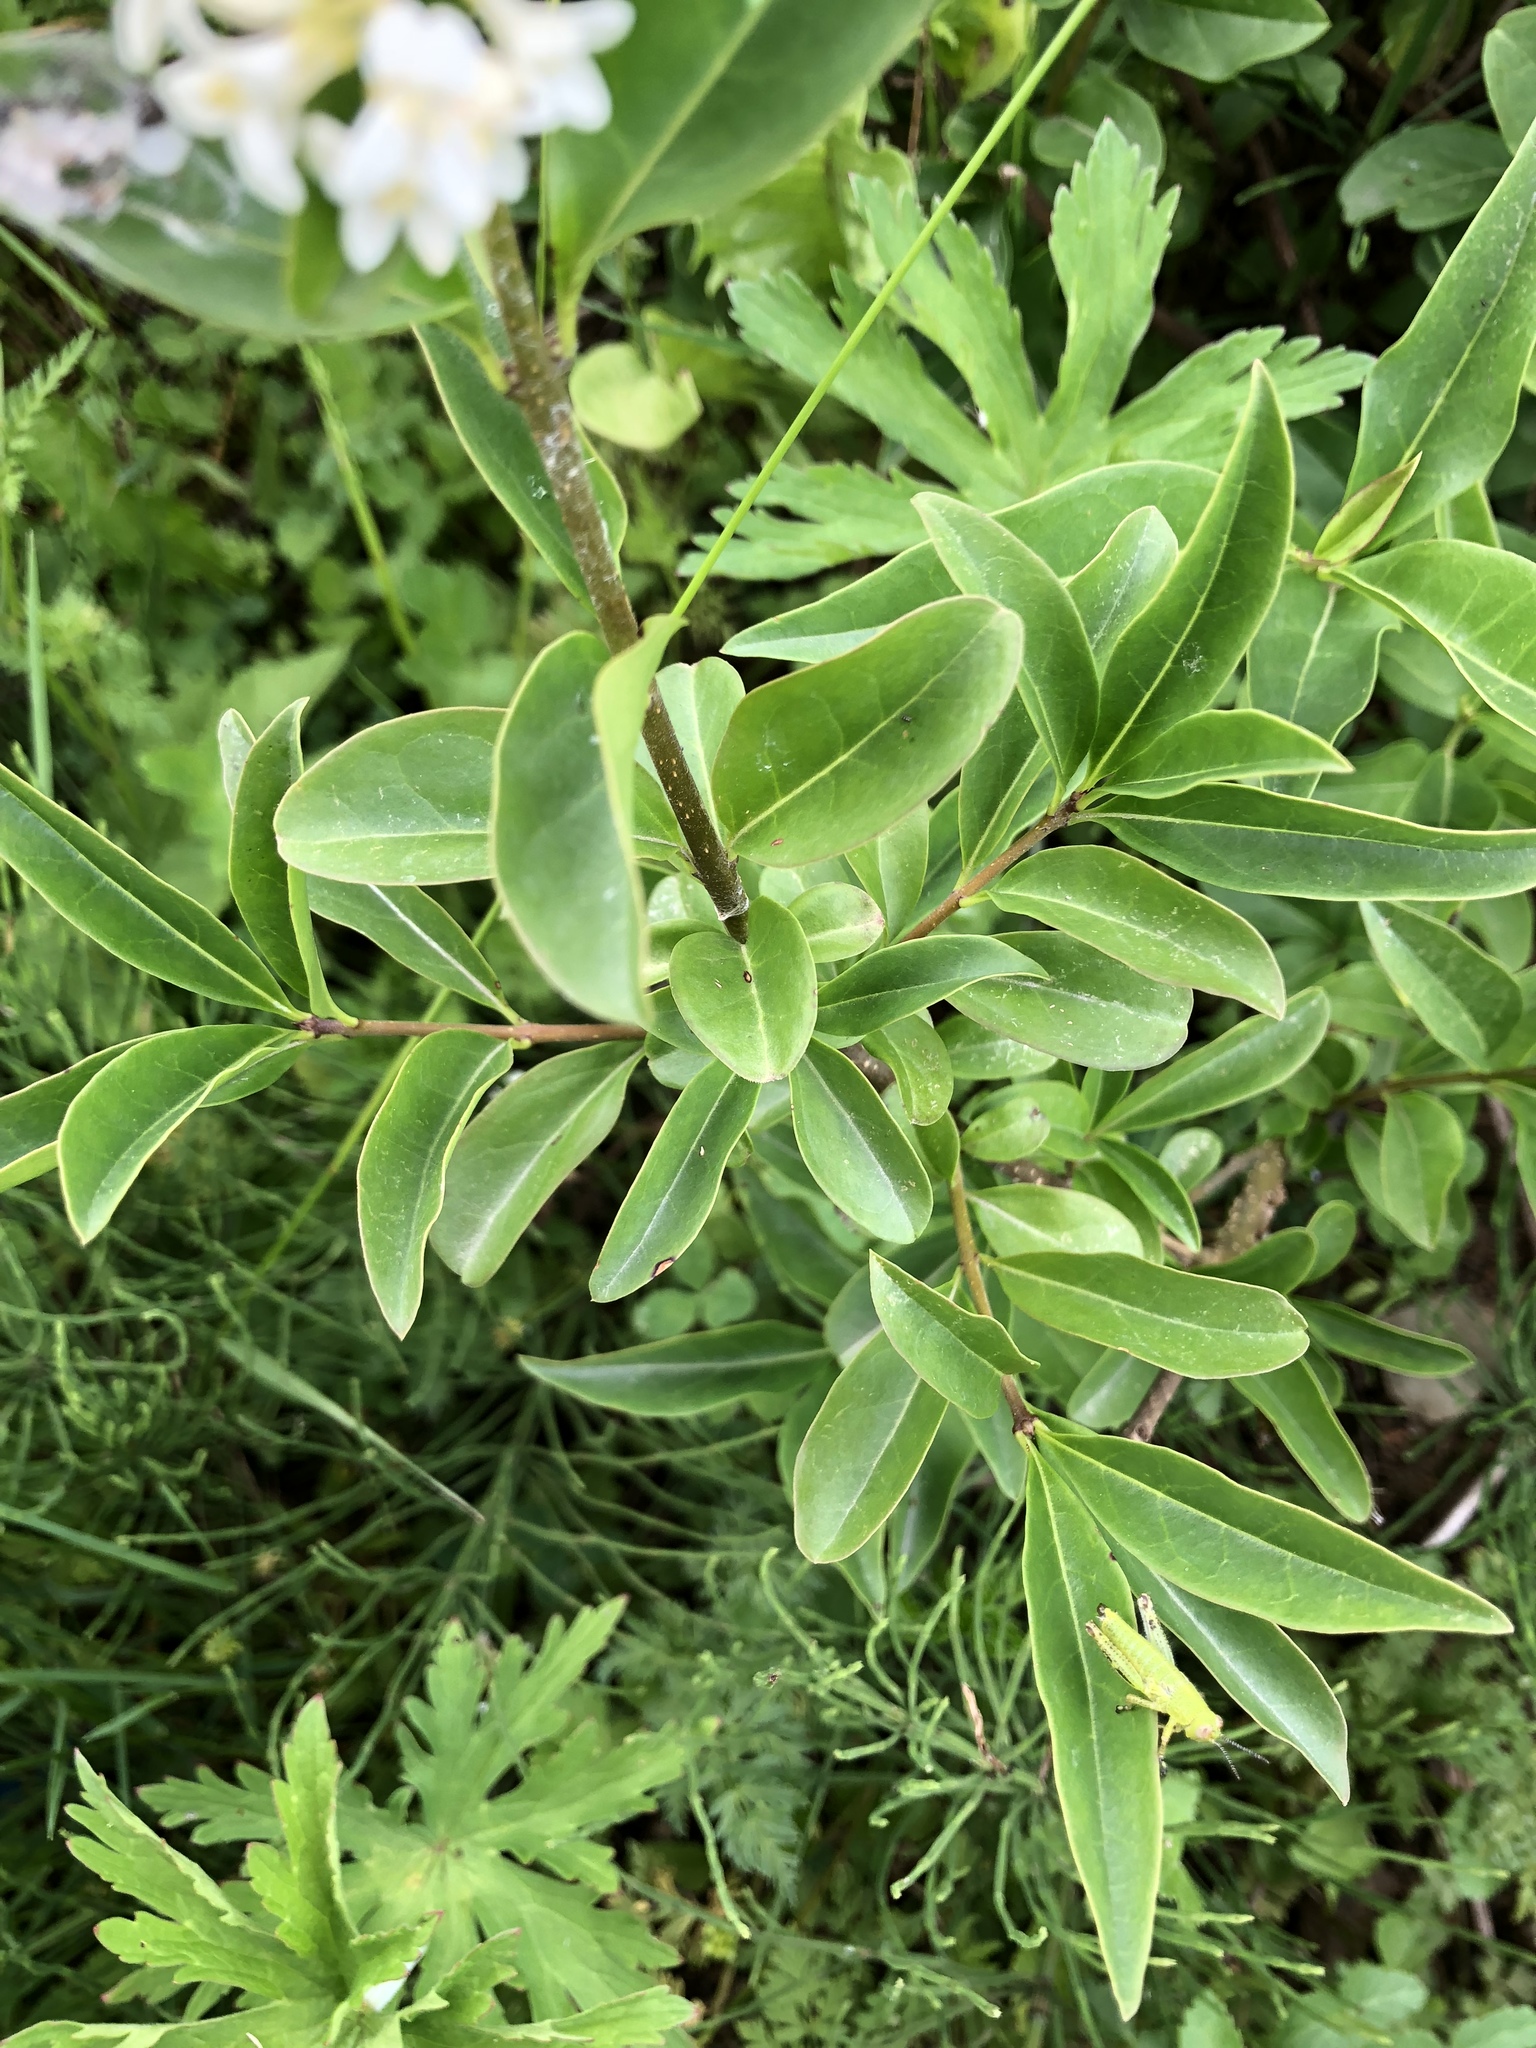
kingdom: Plantae
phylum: Tracheophyta
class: Magnoliopsida
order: Lamiales
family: Oleaceae
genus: Ligustrum
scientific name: Ligustrum vulgare
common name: Wild privet
